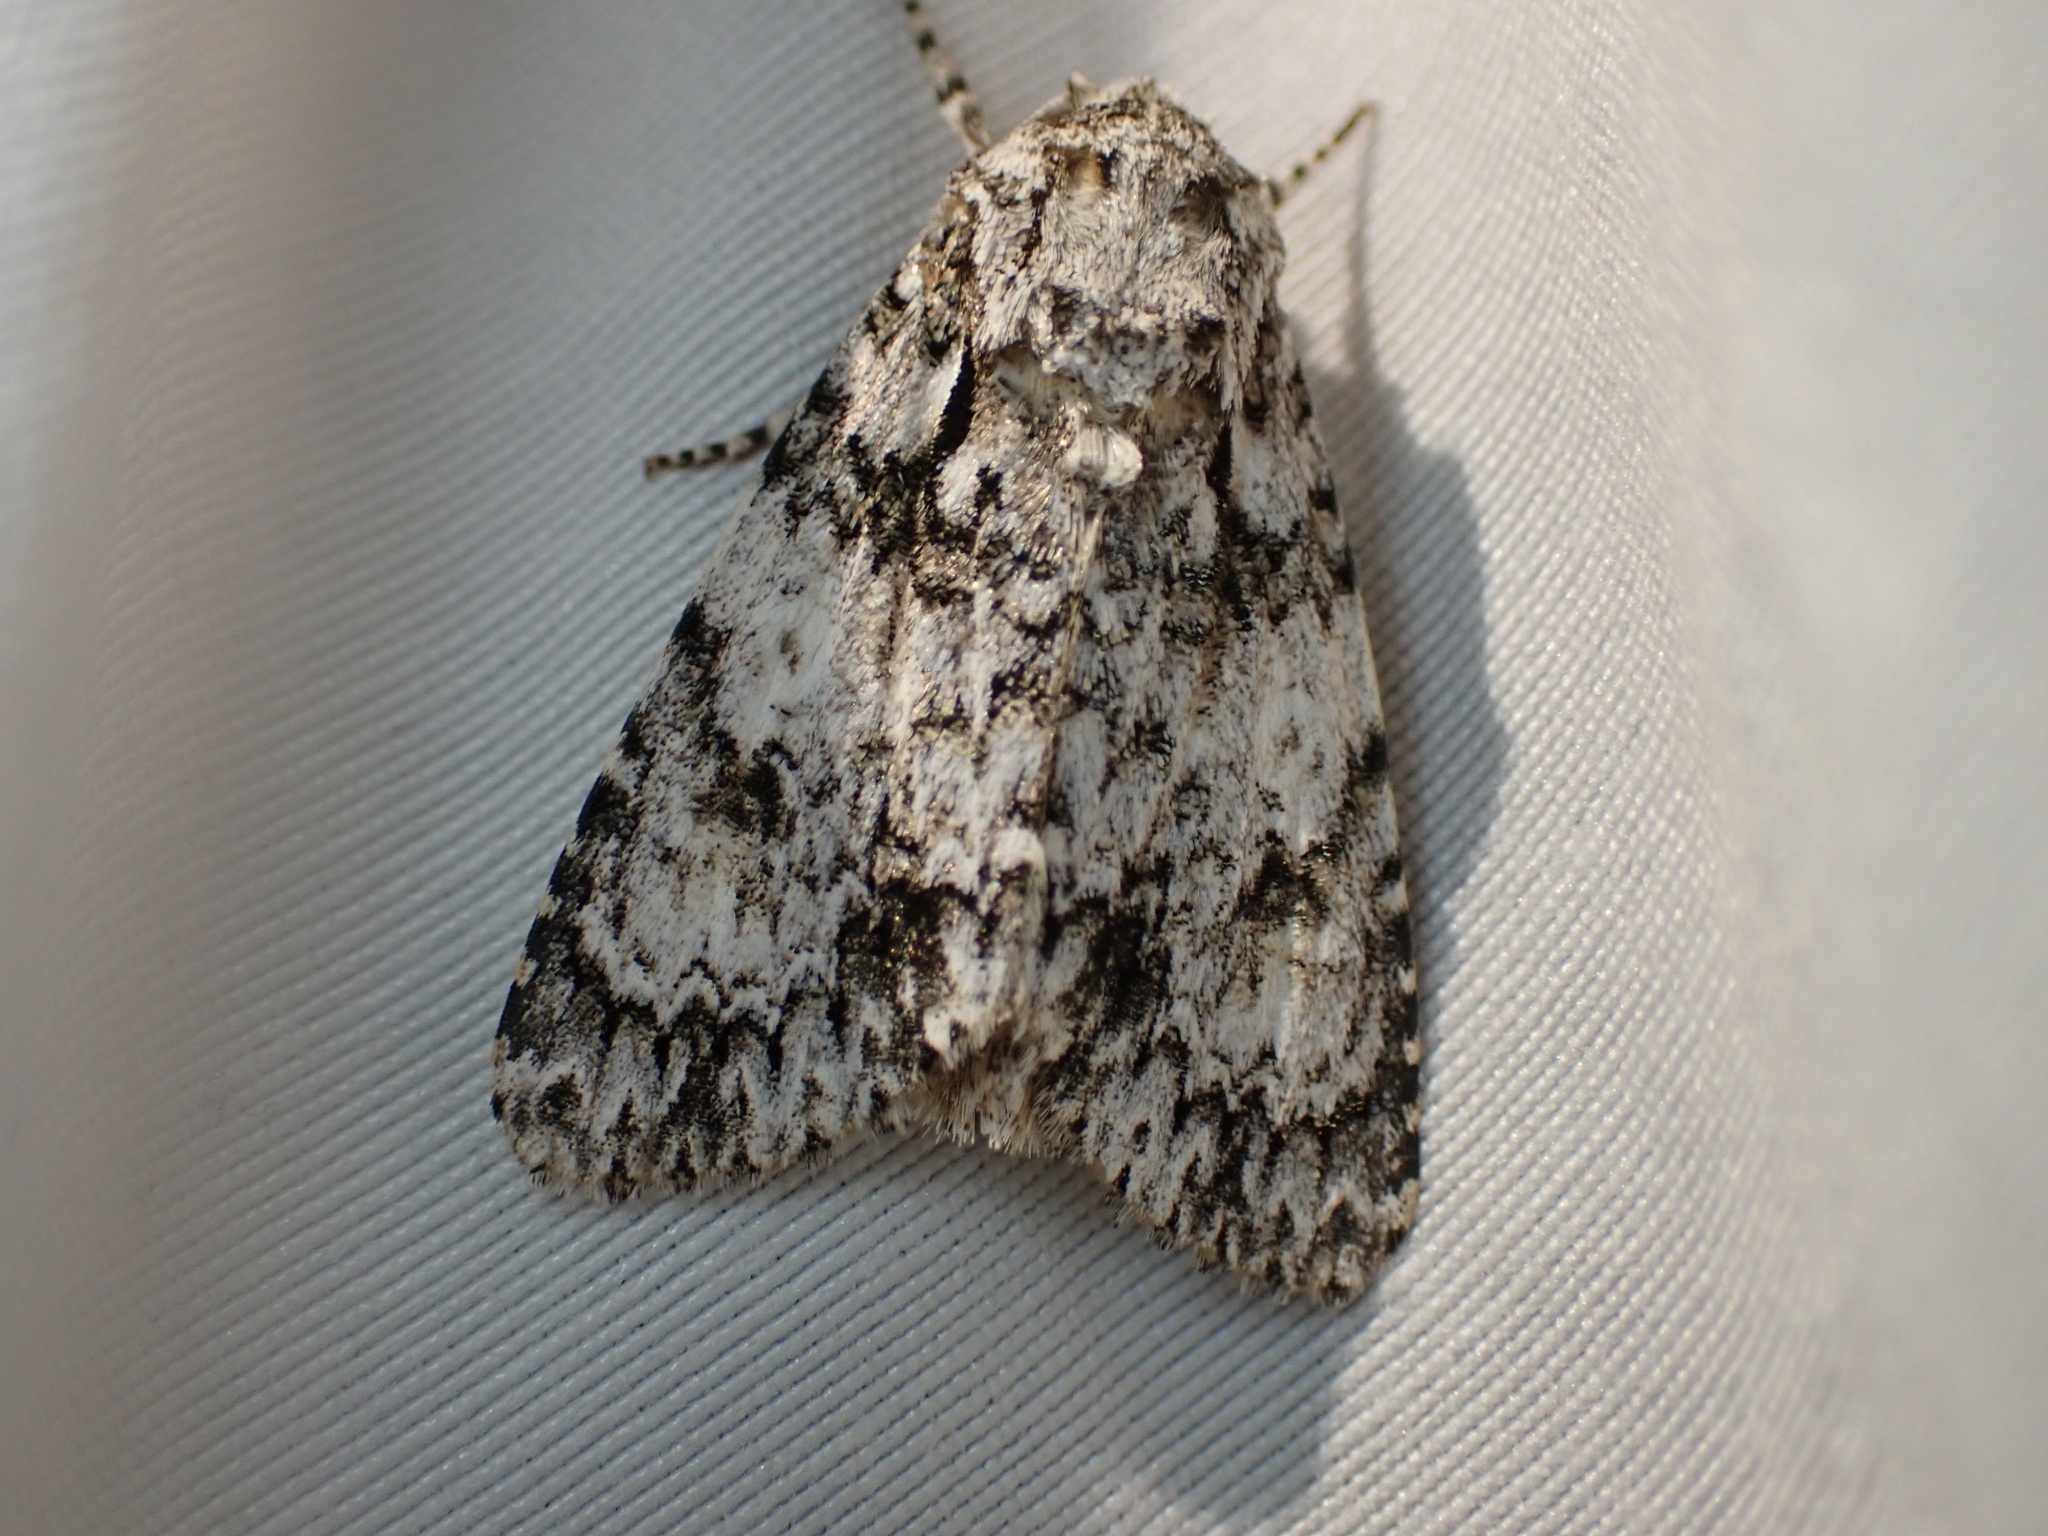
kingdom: Animalia
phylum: Arthropoda
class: Insecta
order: Lepidoptera
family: Noctuidae
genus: Acronicta
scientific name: Acronicta marmorata
